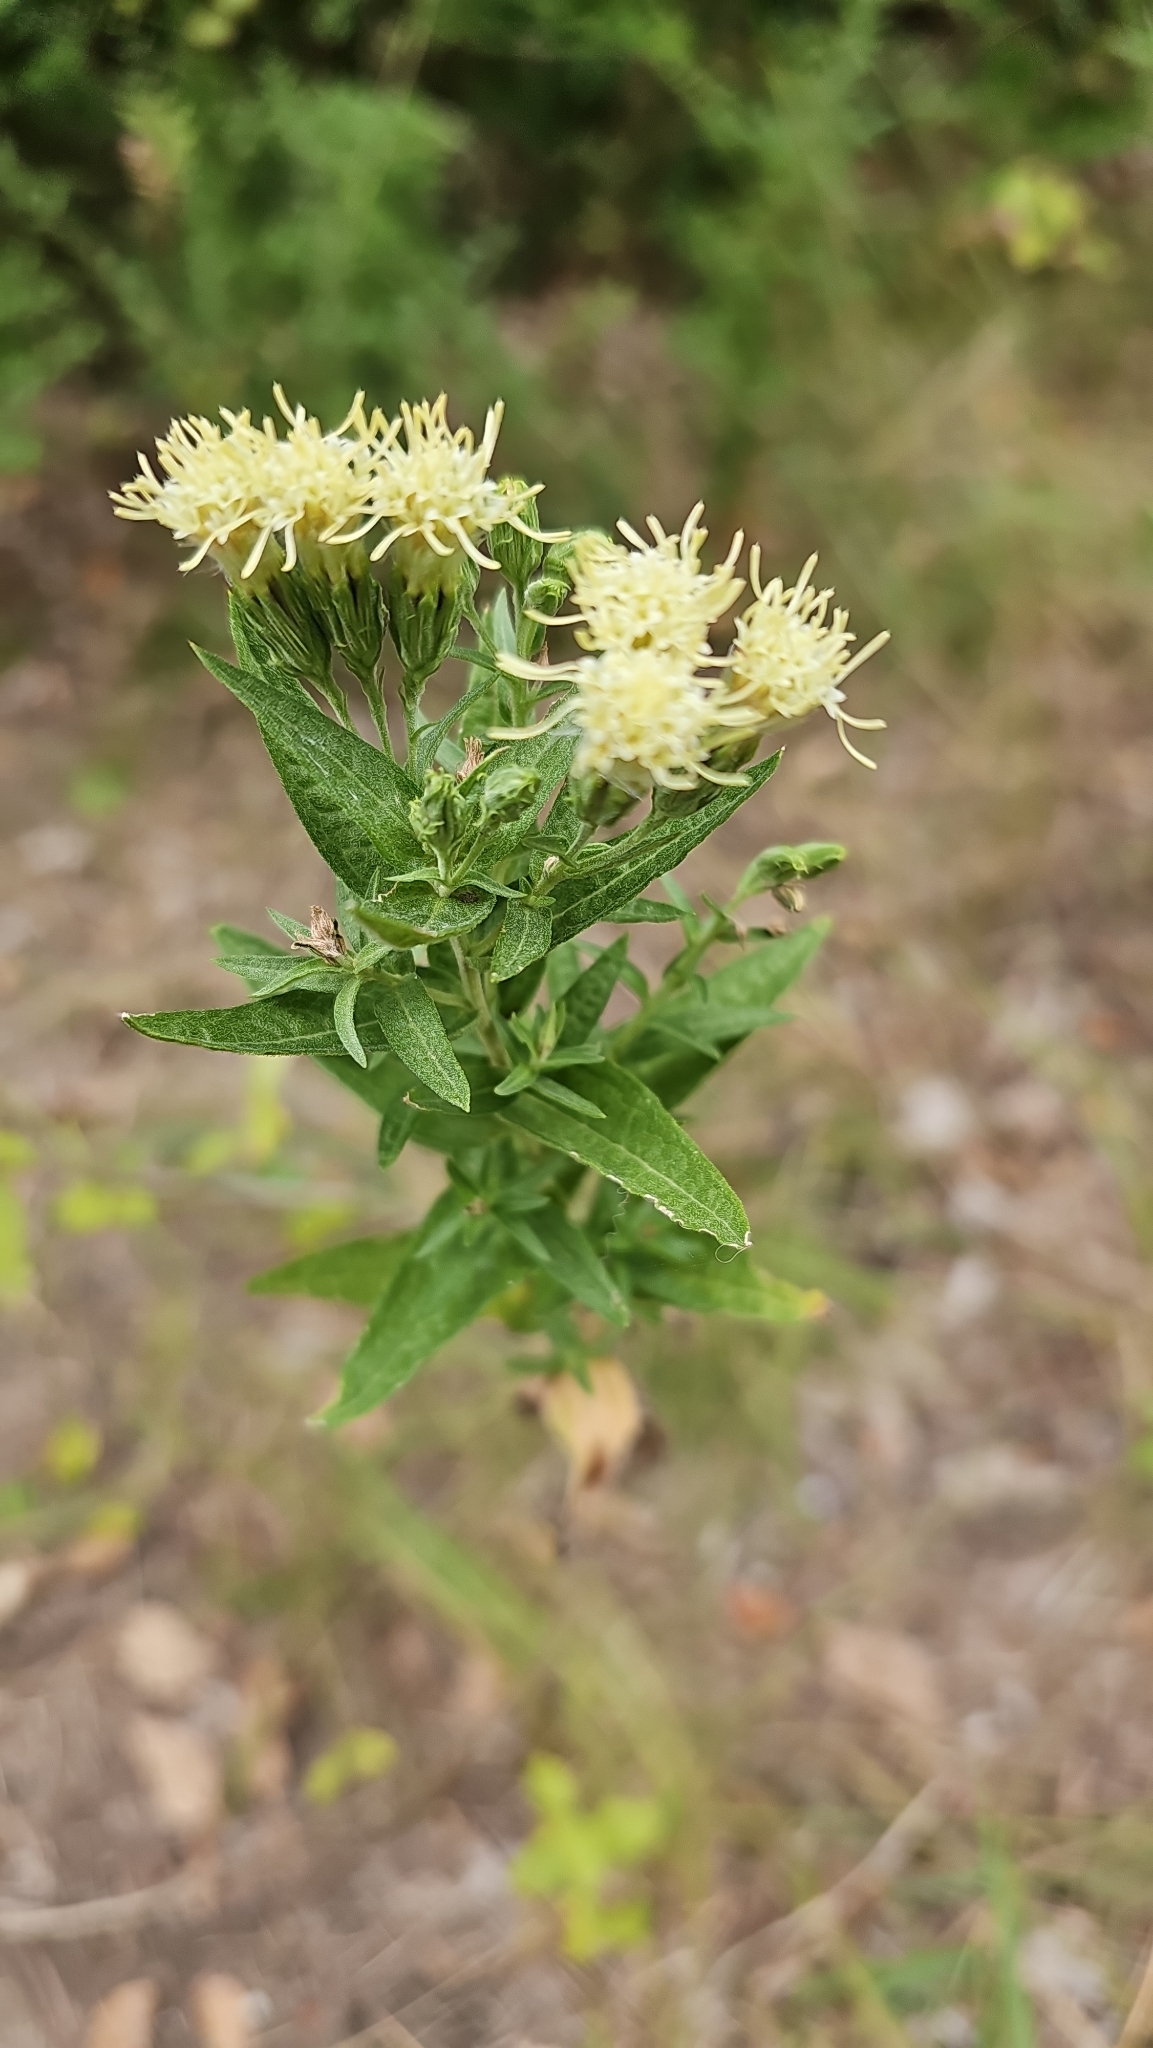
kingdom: Plantae
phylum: Tracheophyta
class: Magnoliopsida
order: Asterales
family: Asteraceae
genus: Brickellia
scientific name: Brickellia eupatorioides
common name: False boneset
